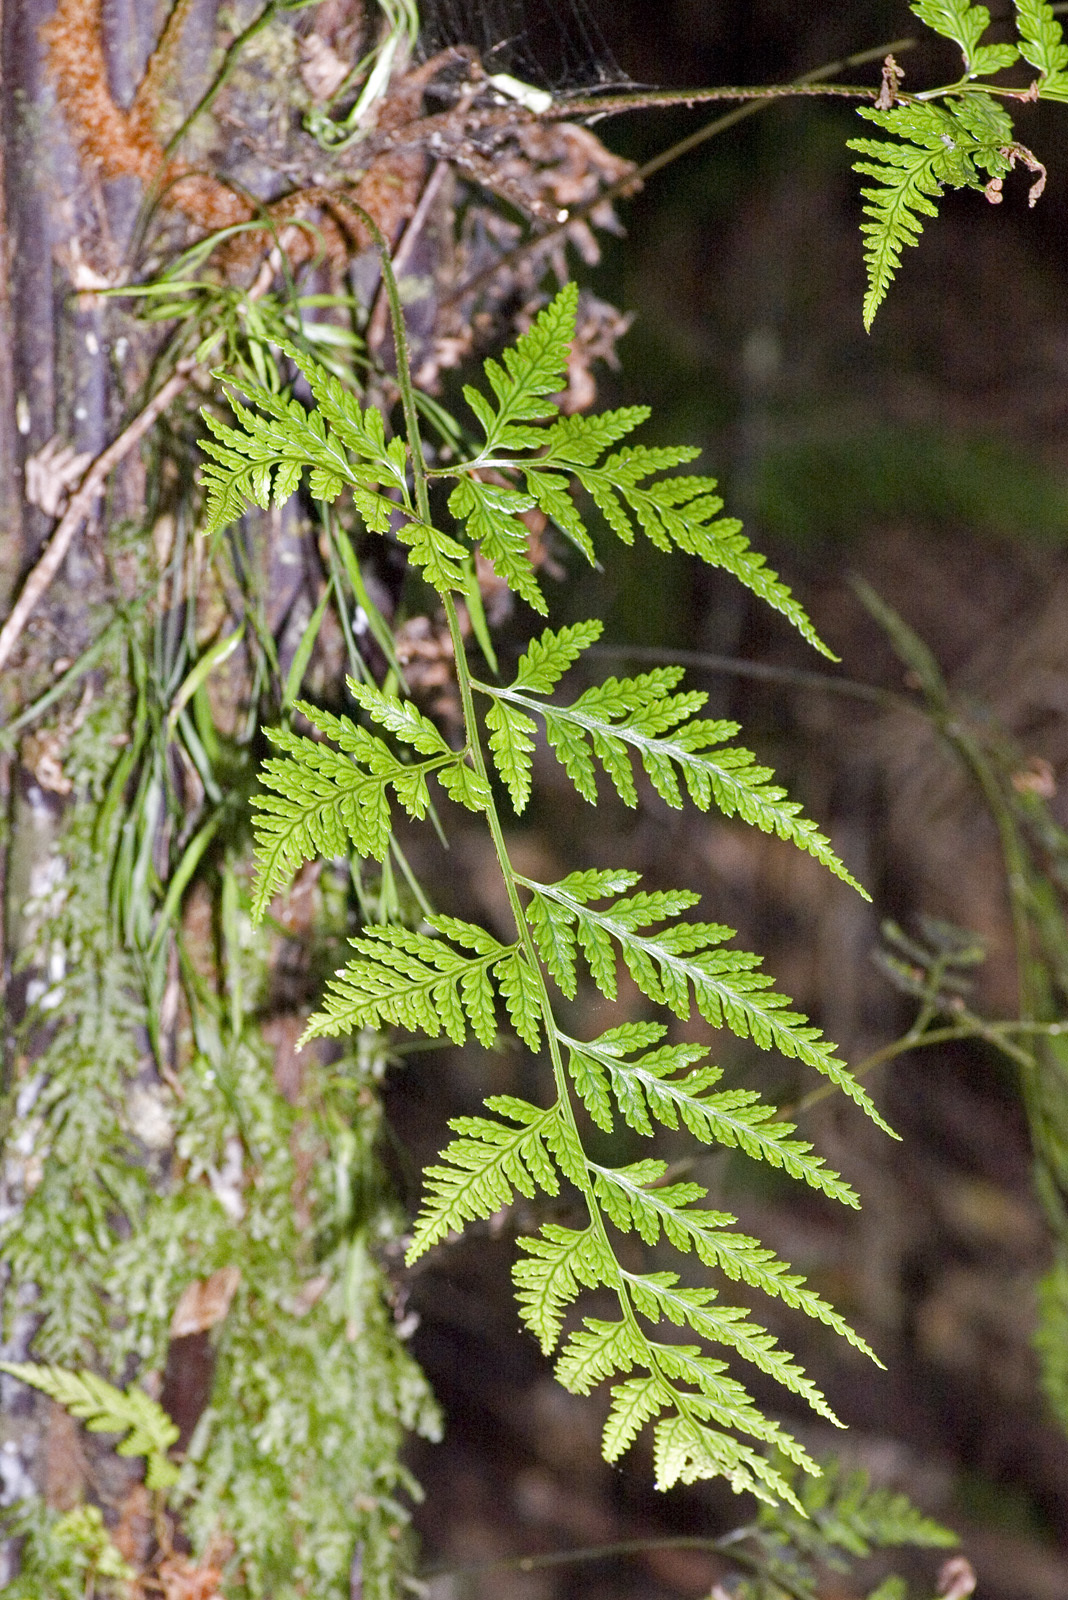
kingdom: Plantae
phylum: Tracheophyta
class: Polypodiopsida
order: Polypodiales
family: Dryopteridaceae
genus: Rumohra
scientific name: Rumohra adiantiformis
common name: Leather fern
